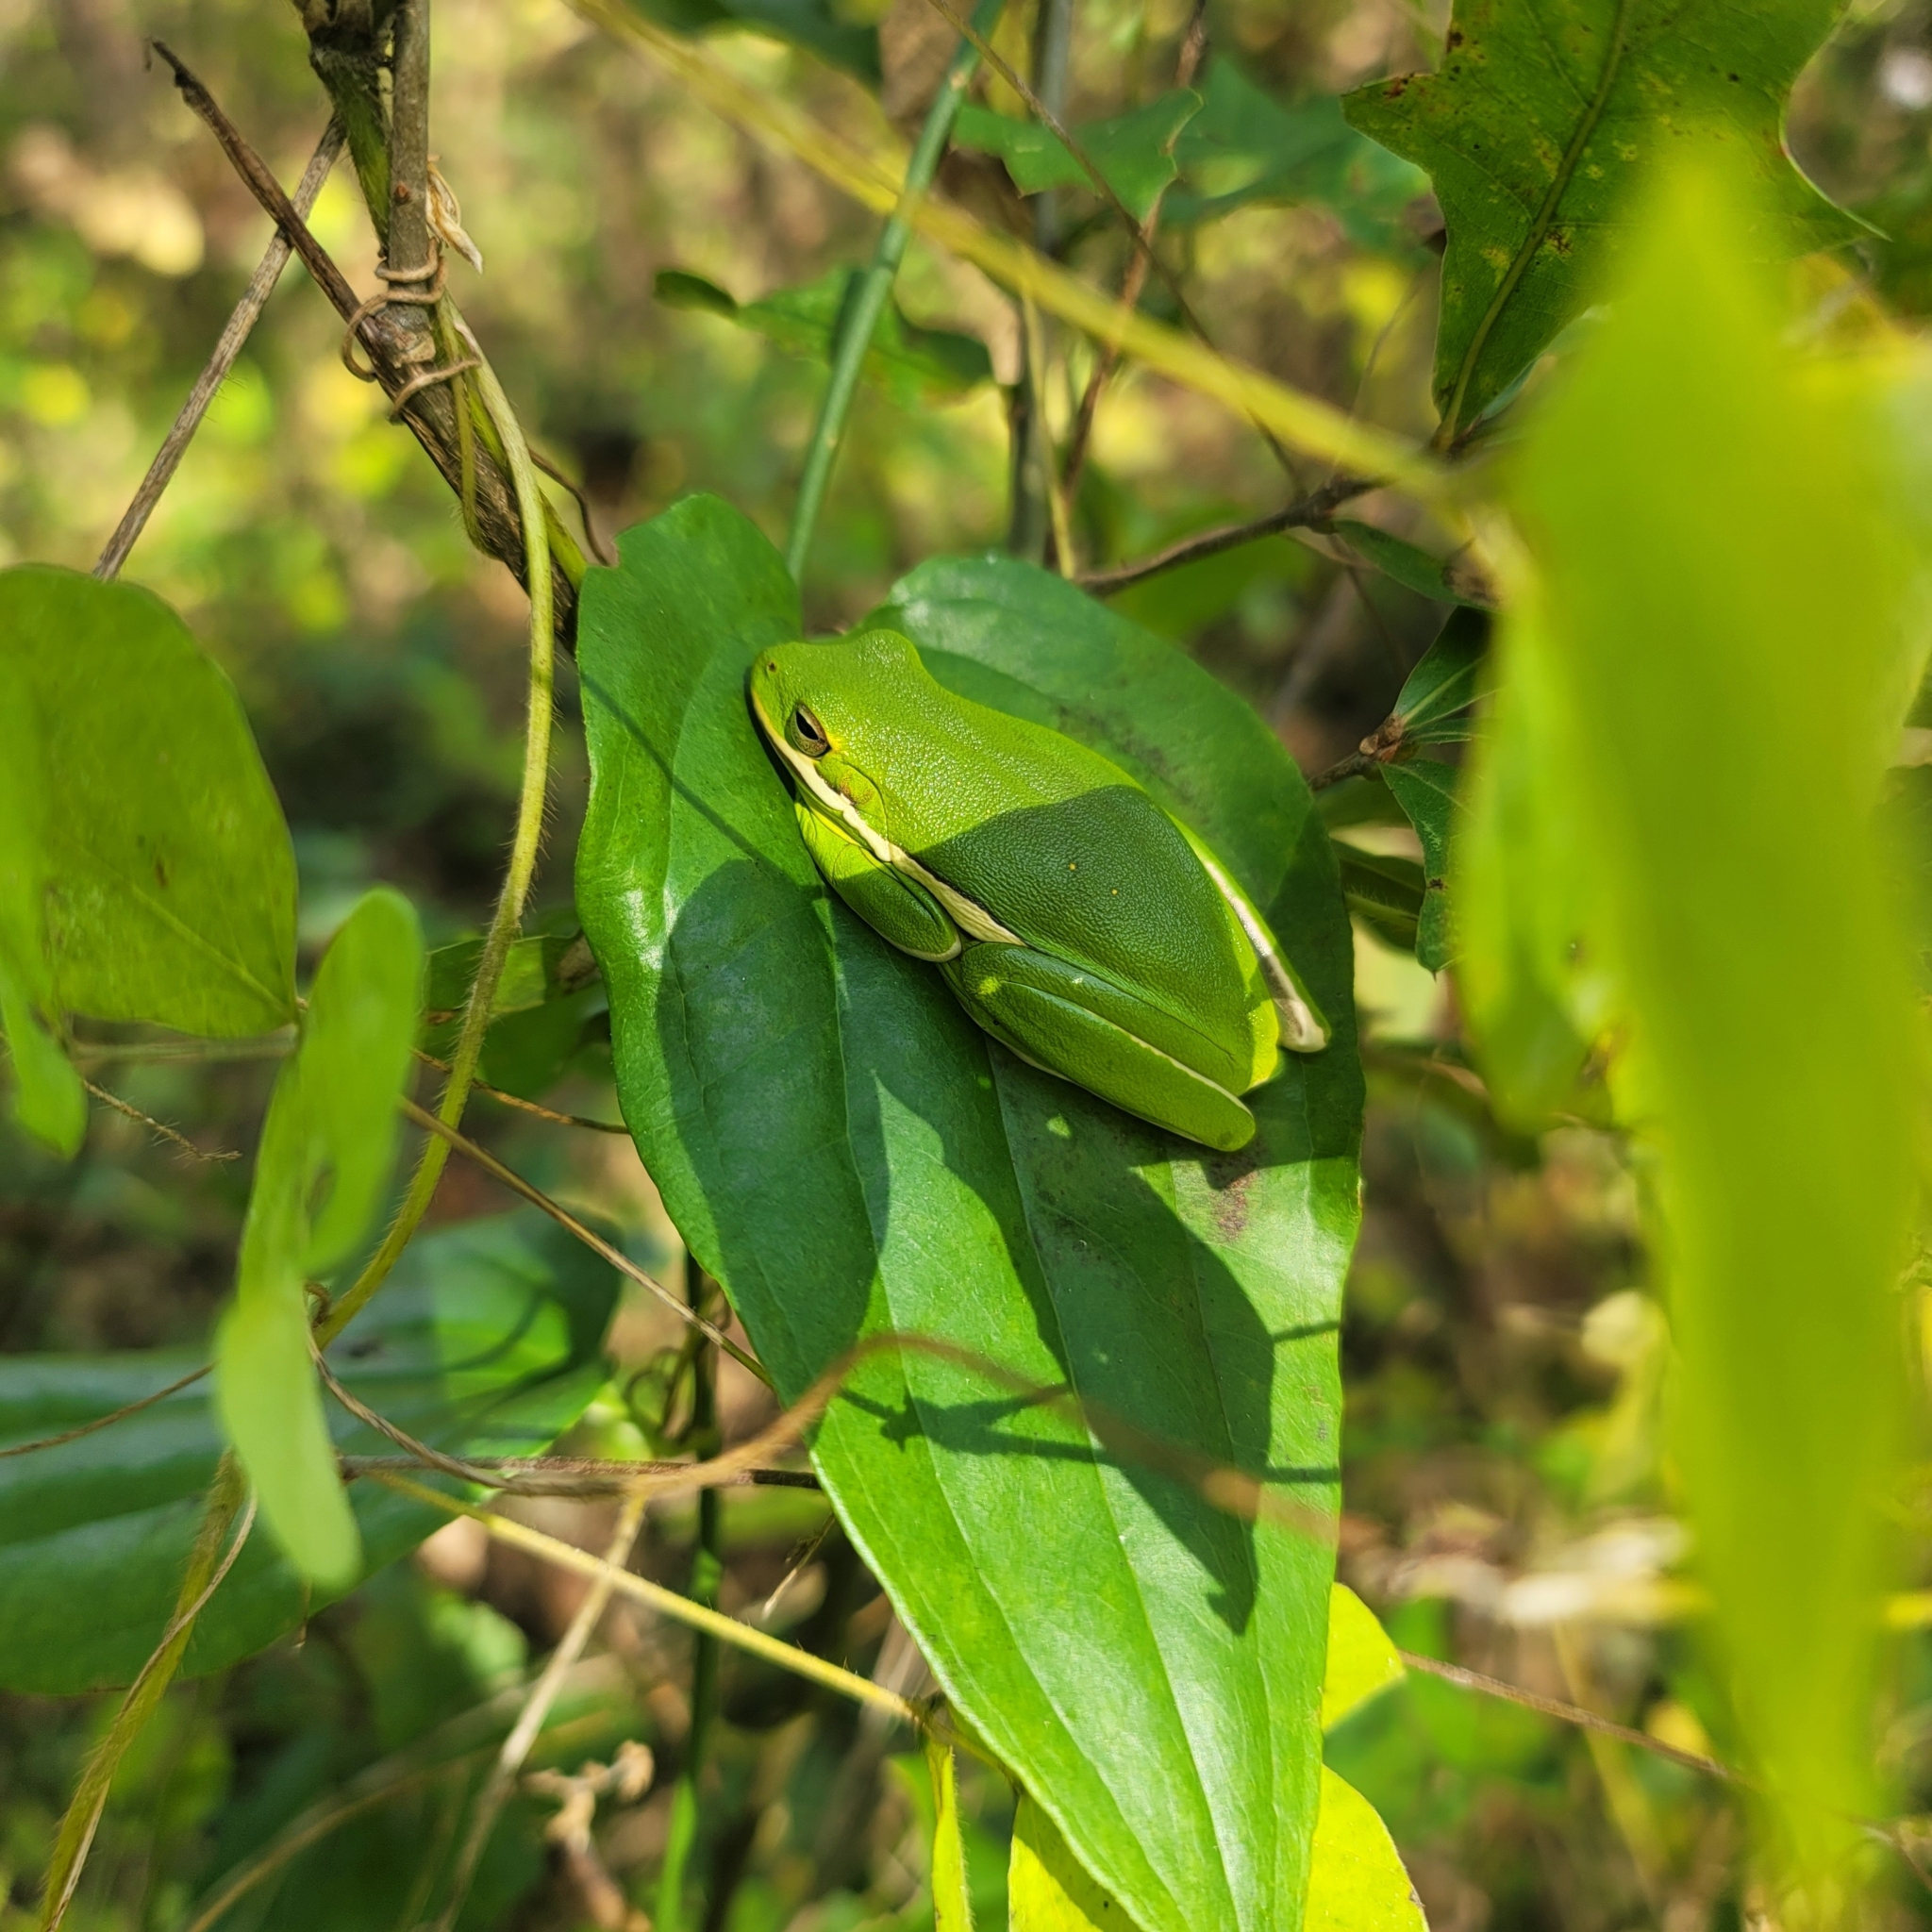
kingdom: Animalia
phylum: Chordata
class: Amphibia
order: Anura
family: Hylidae
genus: Dryophytes
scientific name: Dryophytes cinereus
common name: Green treefrog
